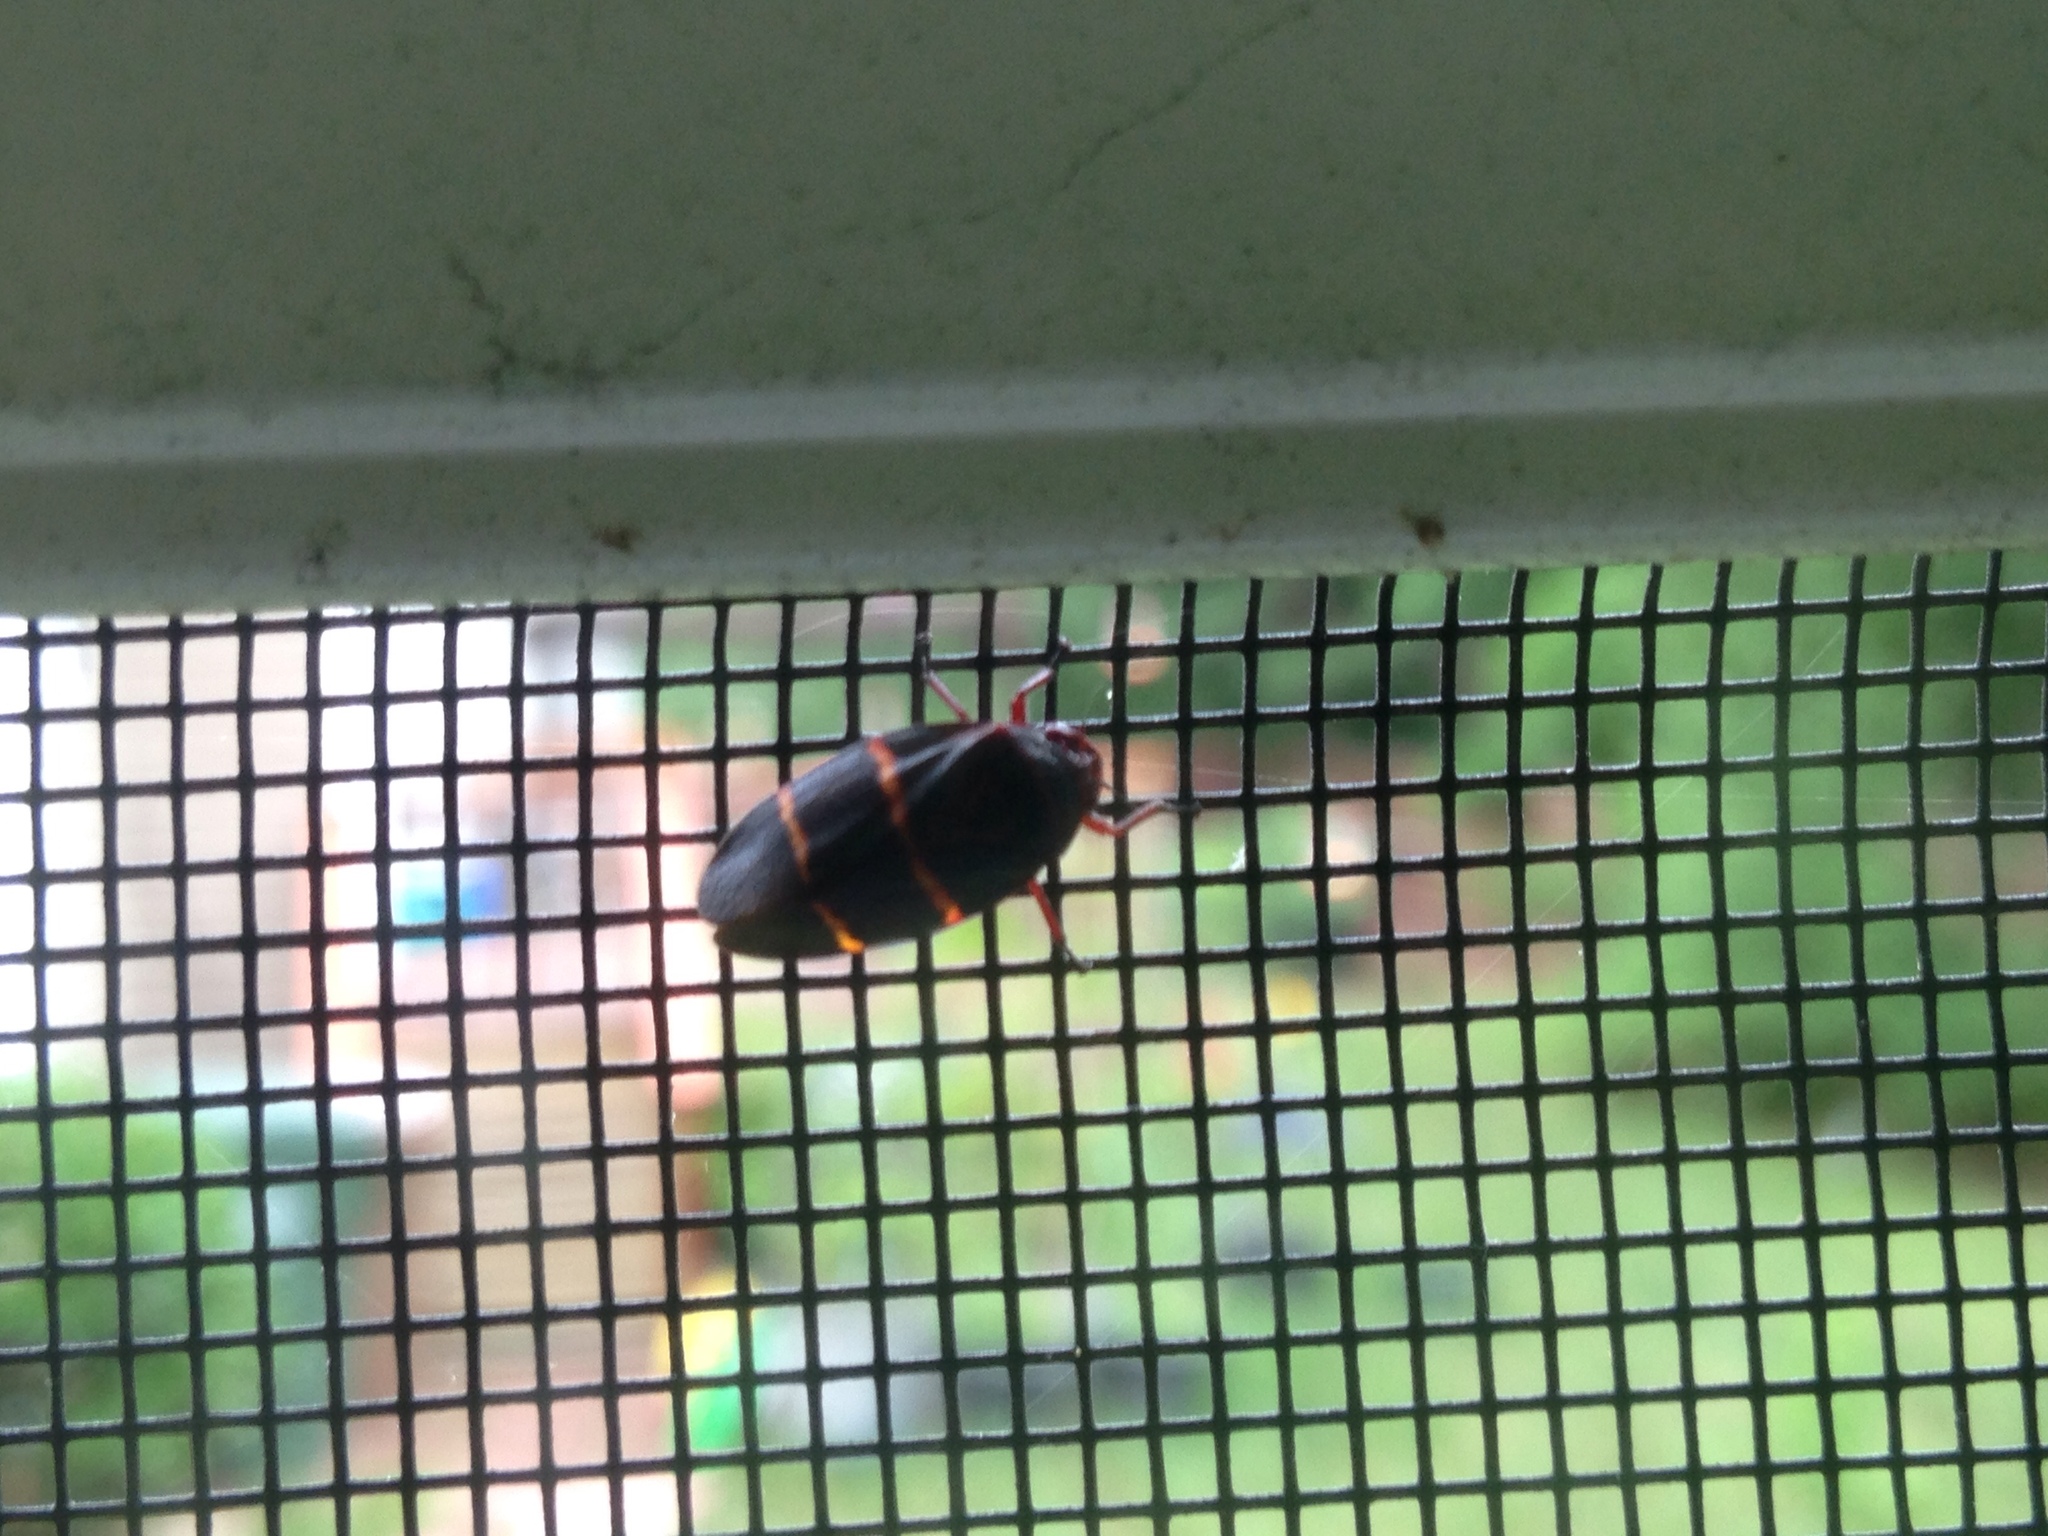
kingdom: Animalia
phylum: Arthropoda
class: Insecta
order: Hemiptera
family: Cercopidae
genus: Prosapia
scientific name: Prosapia bicincta
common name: Twolined spittlebug
